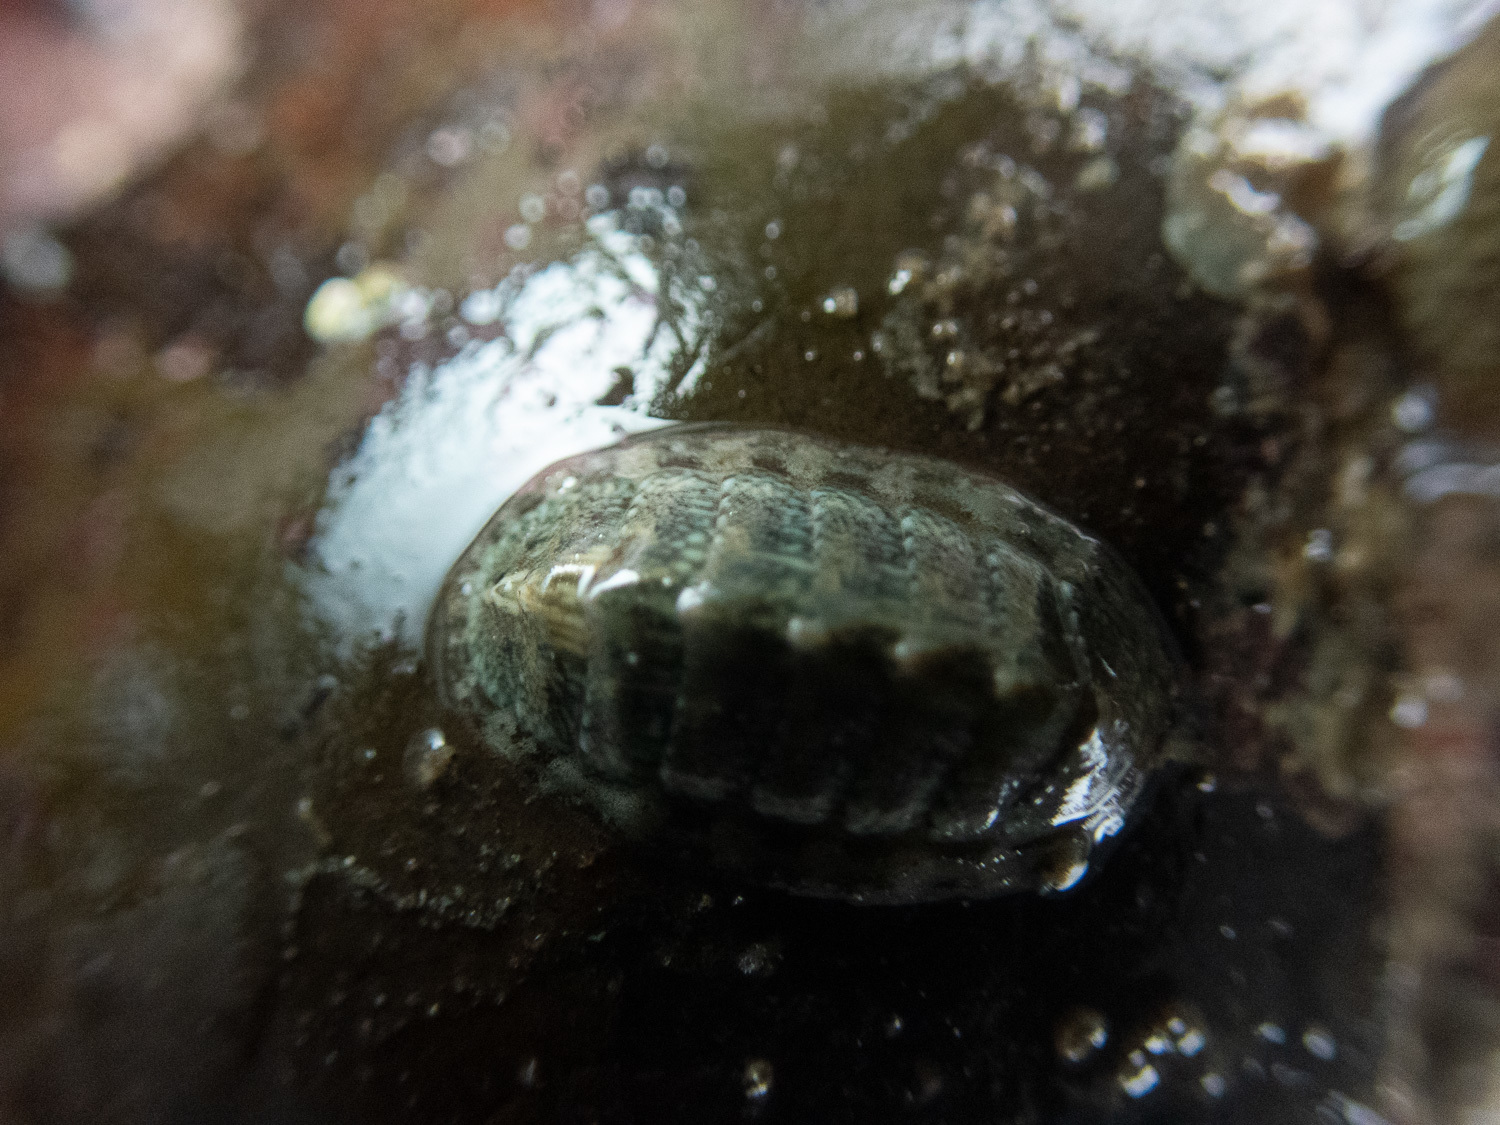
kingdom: Animalia
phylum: Mollusca
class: Polyplacophora
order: Chitonida
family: Tonicellidae
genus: Lepidochitona
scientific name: Lepidochitona cinerea
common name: Cinereous chiton
